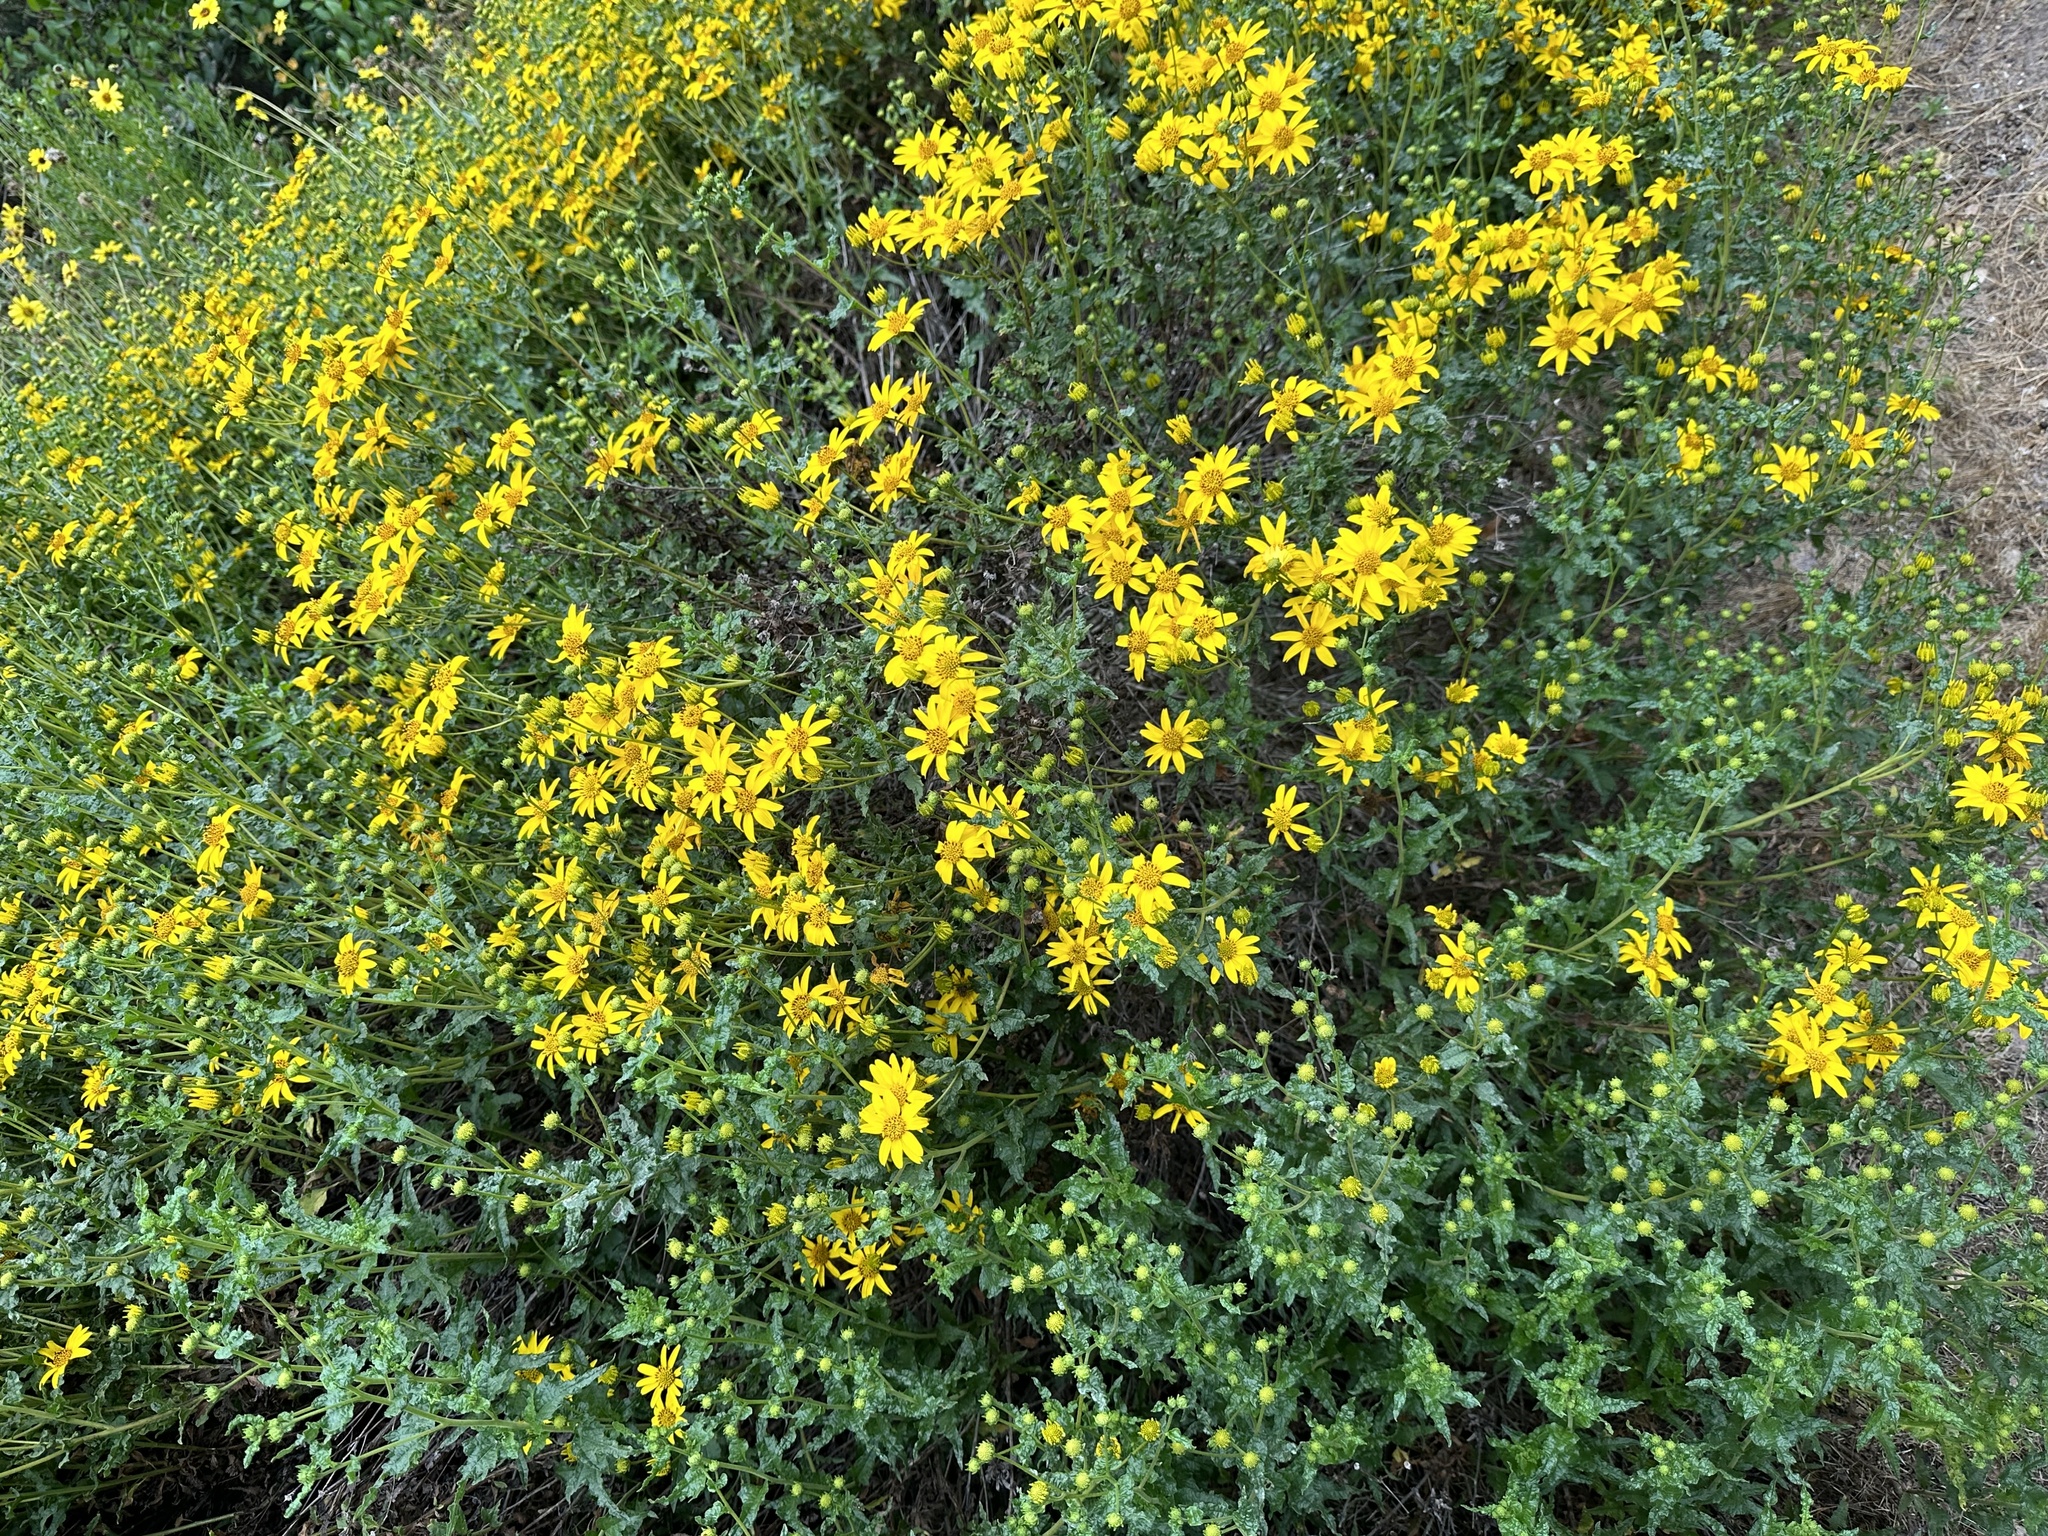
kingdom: Plantae
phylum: Tracheophyta
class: Magnoliopsida
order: Asterales
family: Asteraceae
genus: Bahiopsis
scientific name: Bahiopsis laciniata
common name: San diego county viguiera
